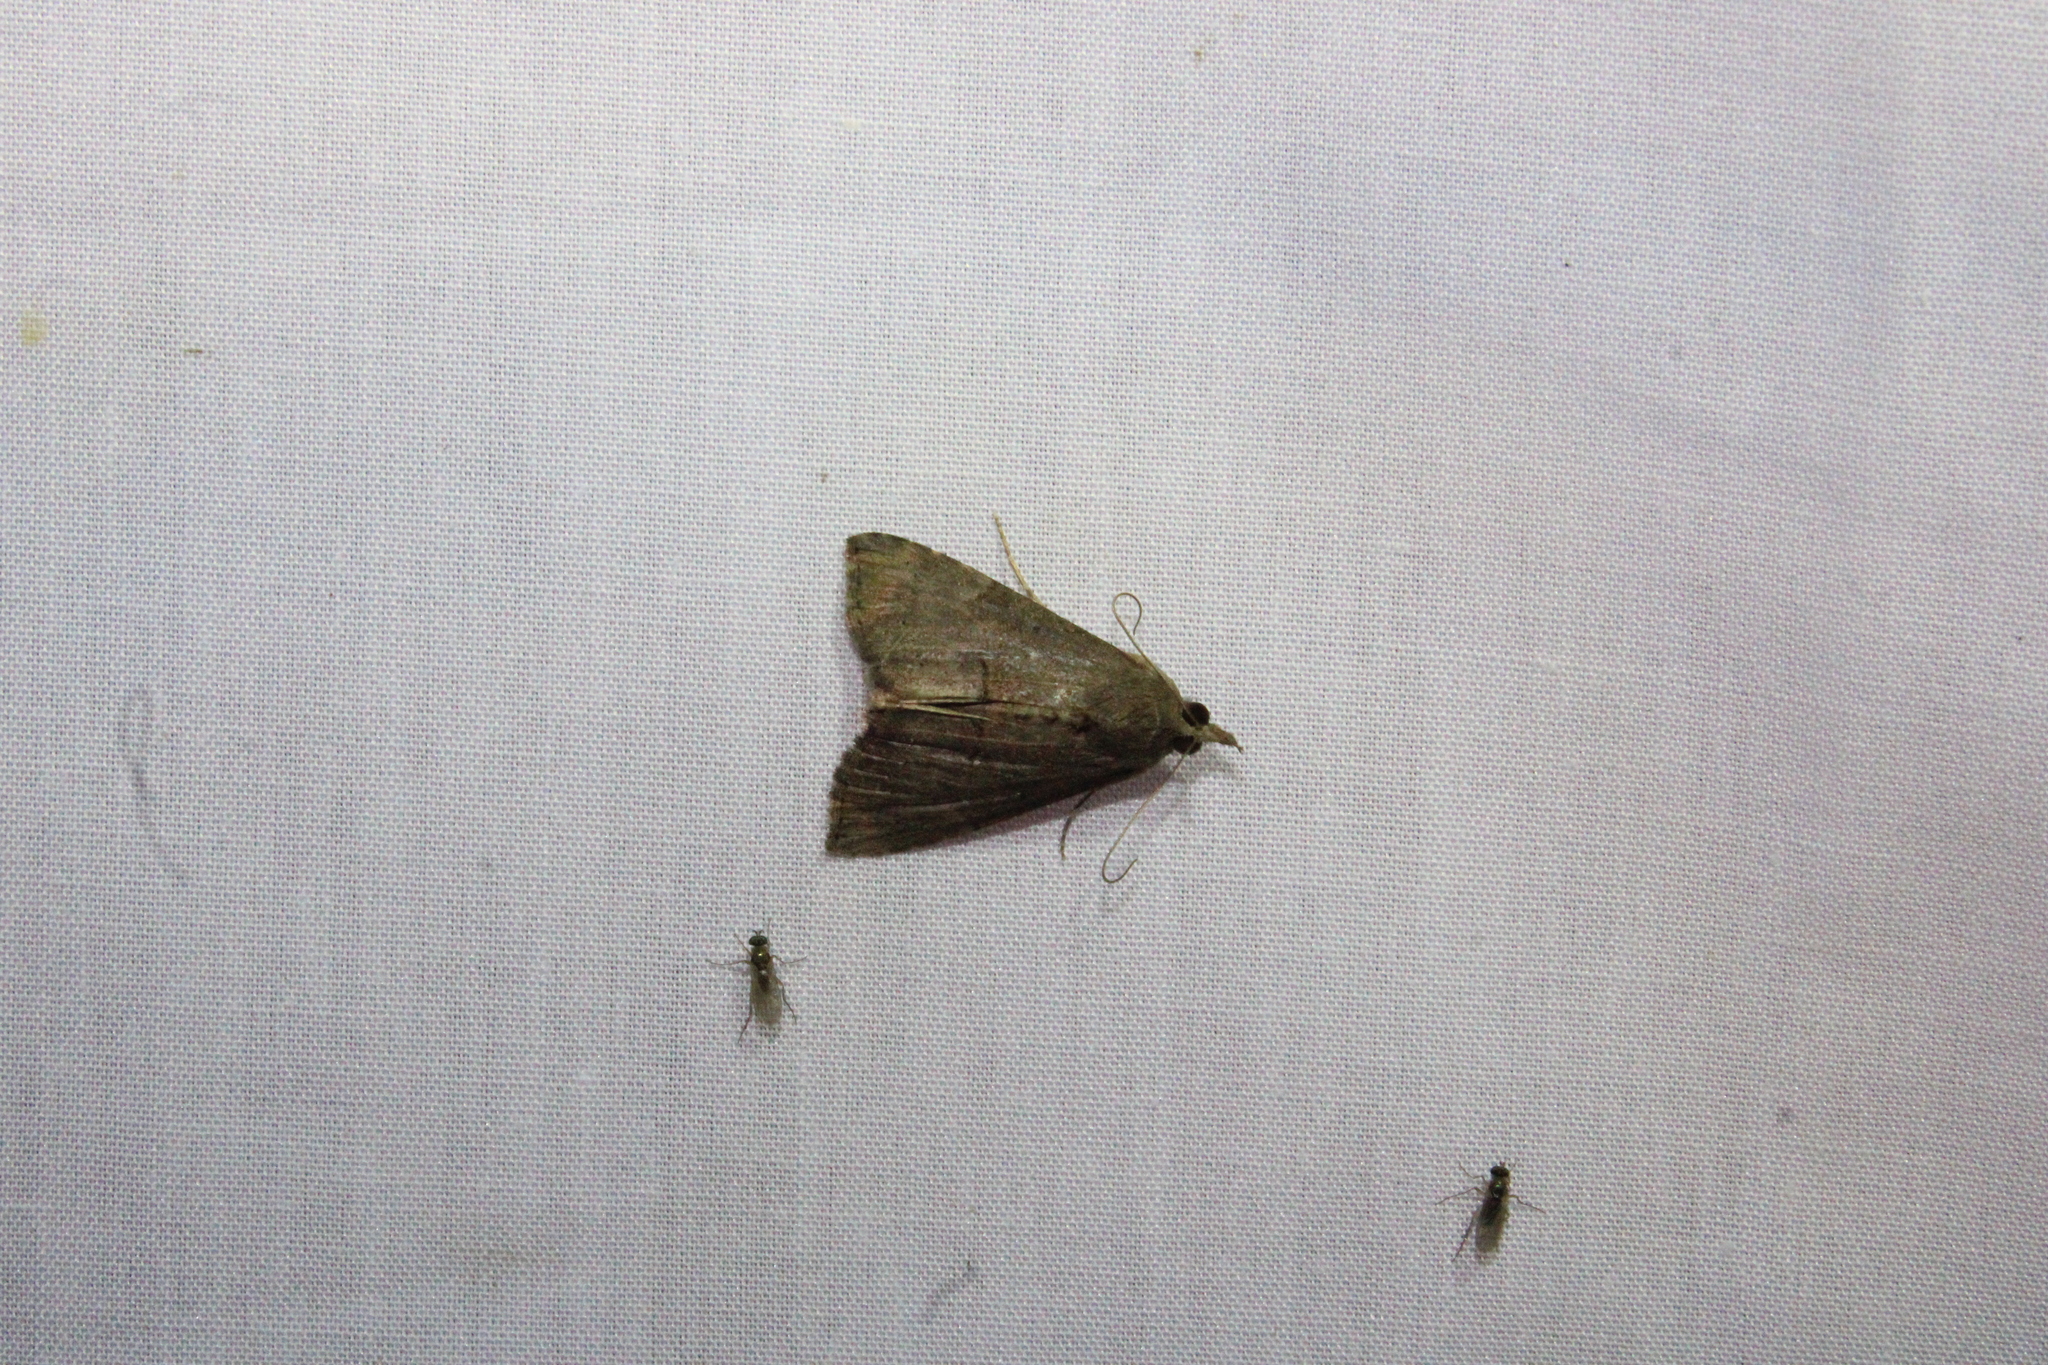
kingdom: Animalia
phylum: Arthropoda
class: Insecta
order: Lepidoptera
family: Erebidae
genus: Hypena
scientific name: Hypena scabra
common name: Green cloverworm
